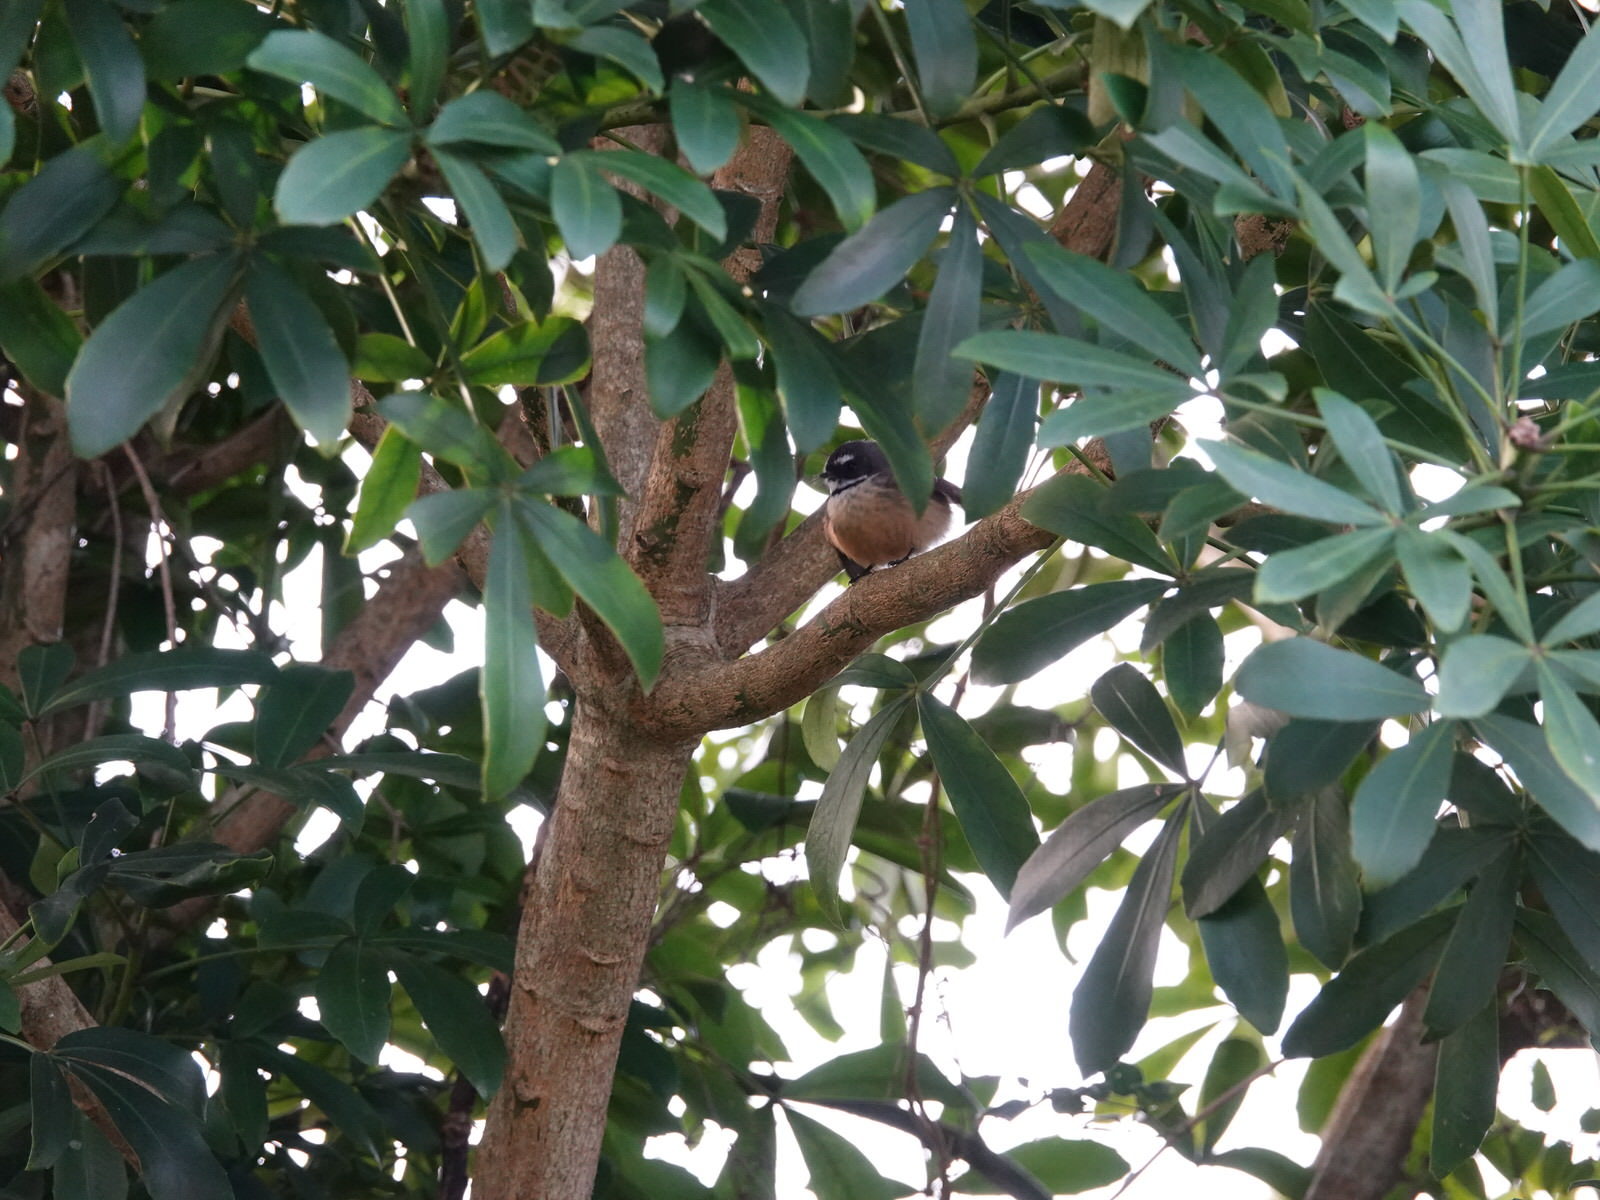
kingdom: Animalia
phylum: Chordata
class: Aves
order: Passeriformes
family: Rhipiduridae
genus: Rhipidura
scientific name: Rhipidura fuliginosa
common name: New zealand fantail
